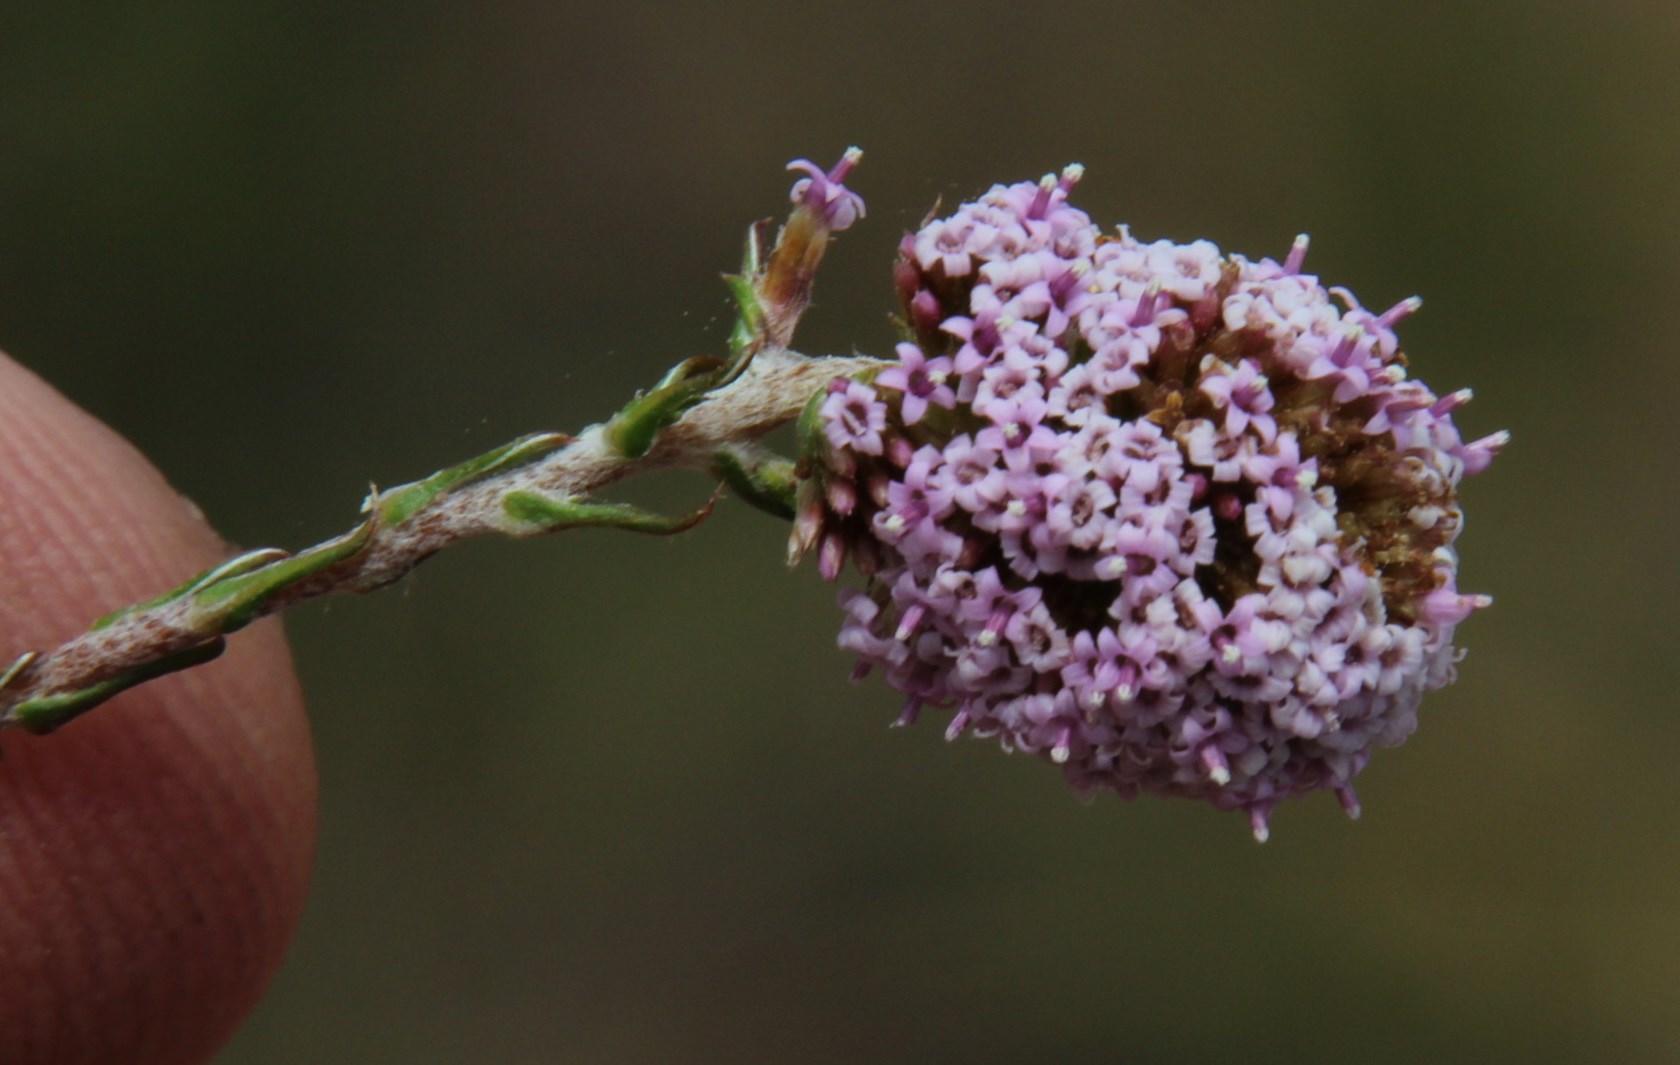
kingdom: Plantae
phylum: Tracheophyta
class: Magnoliopsida
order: Asterales
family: Asteraceae
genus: Stoebe
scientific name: Stoebe capitata
